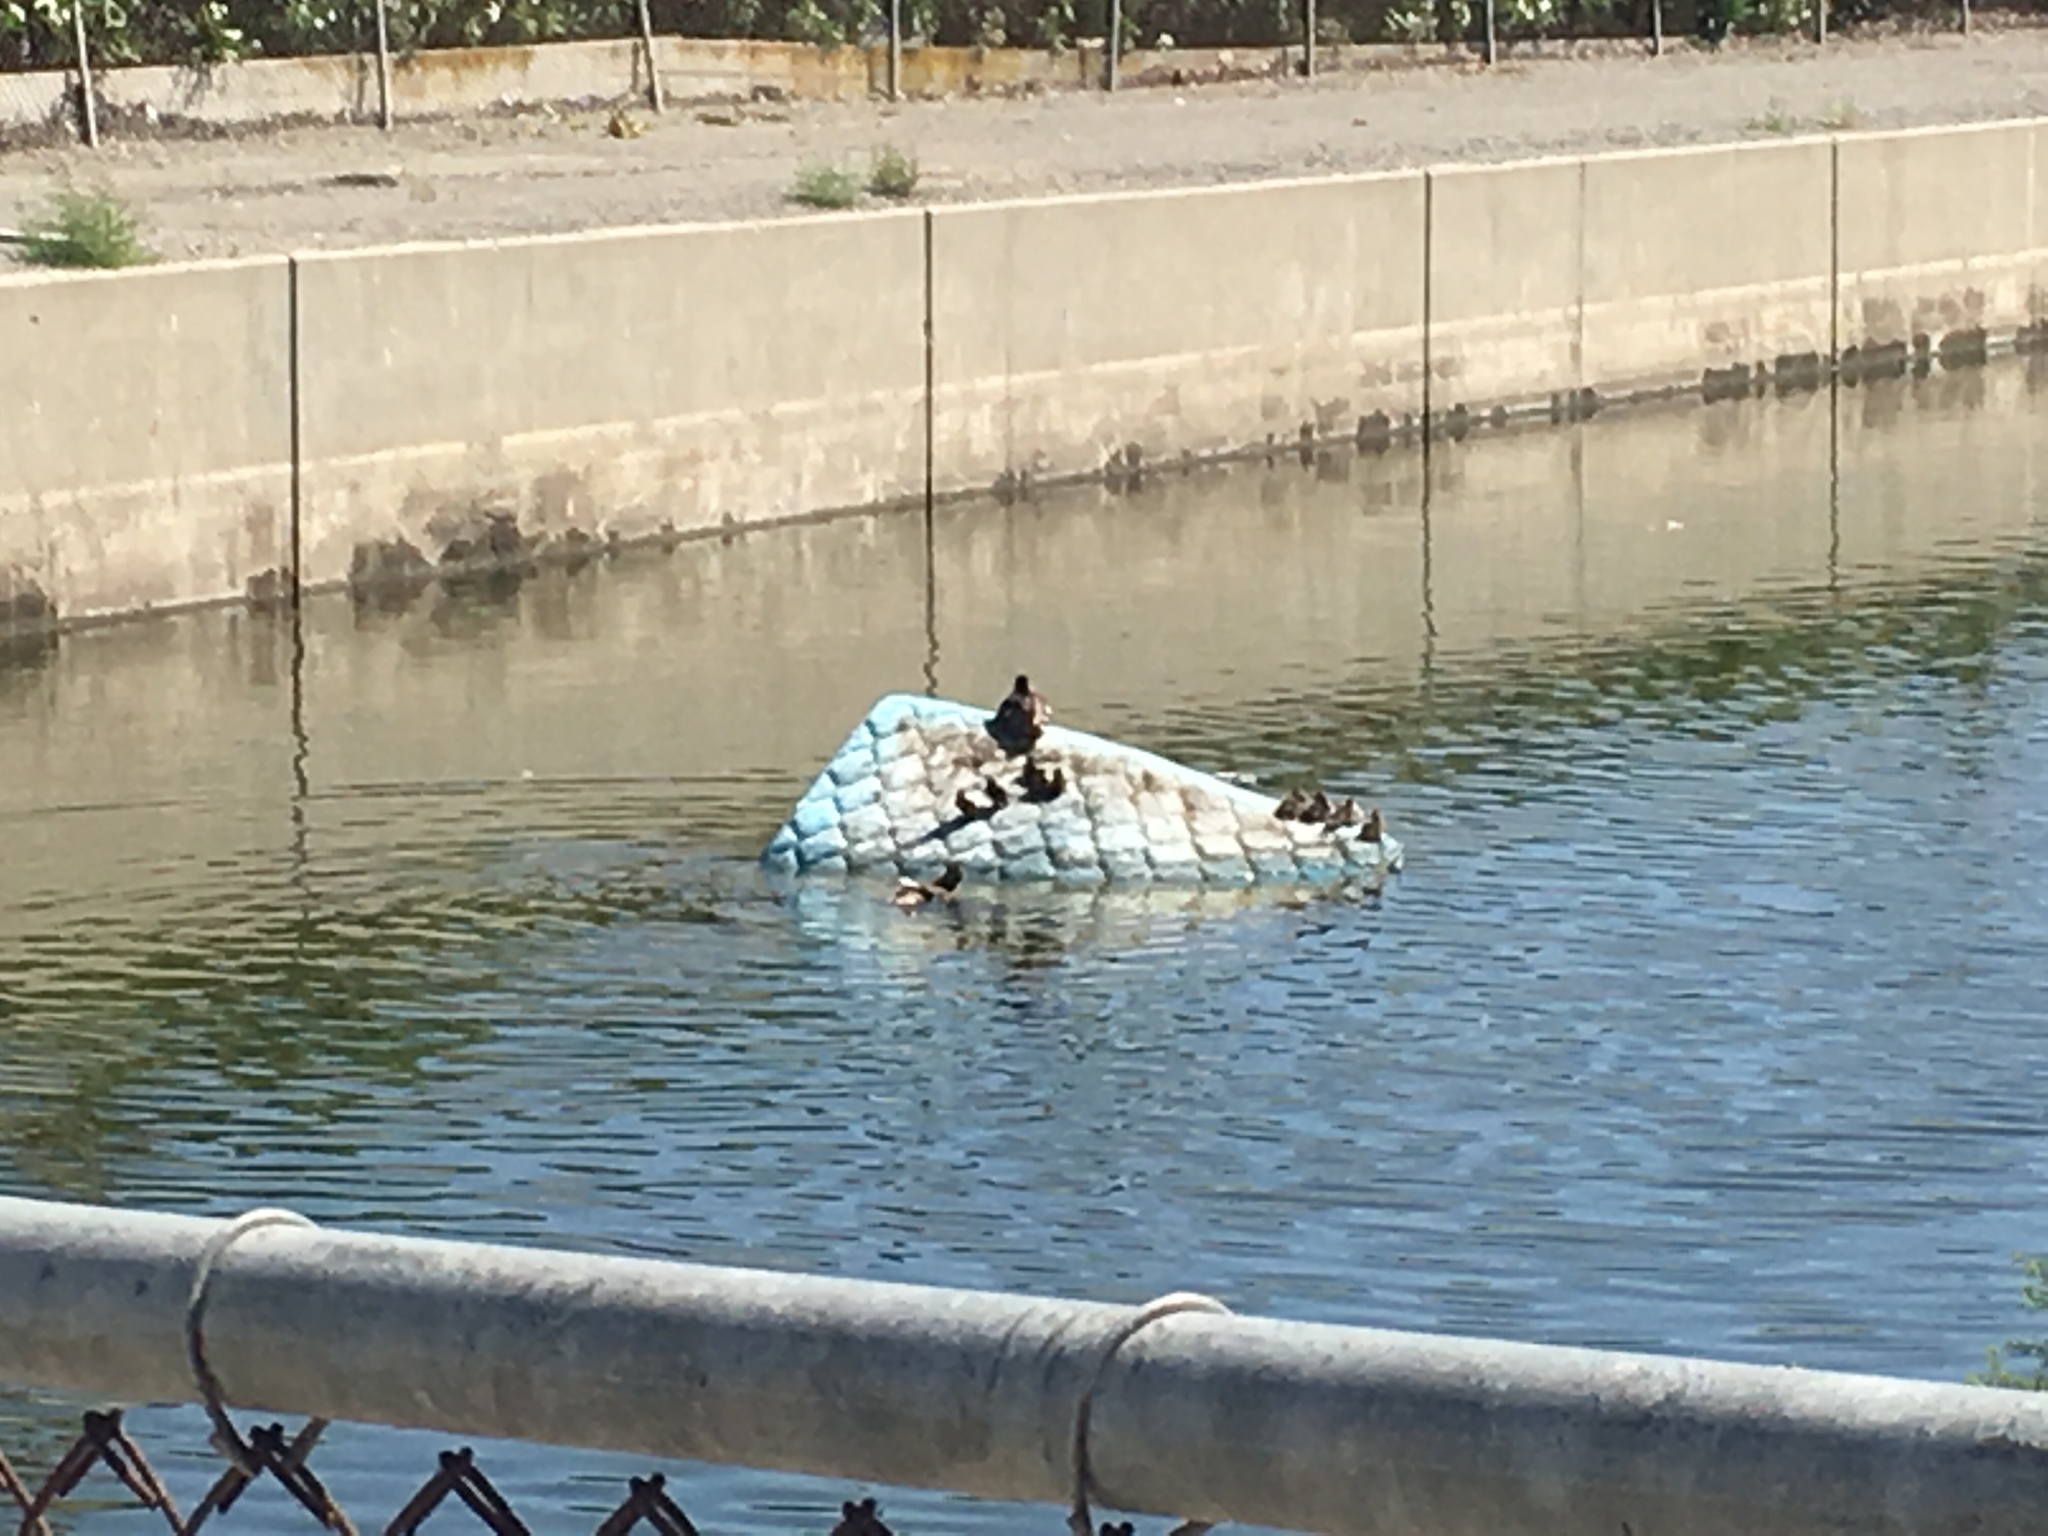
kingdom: Animalia
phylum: Chordata
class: Aves
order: Anseriformes
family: Anatidae
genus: Anas
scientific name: Anas platyrhynchos
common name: Mallard
